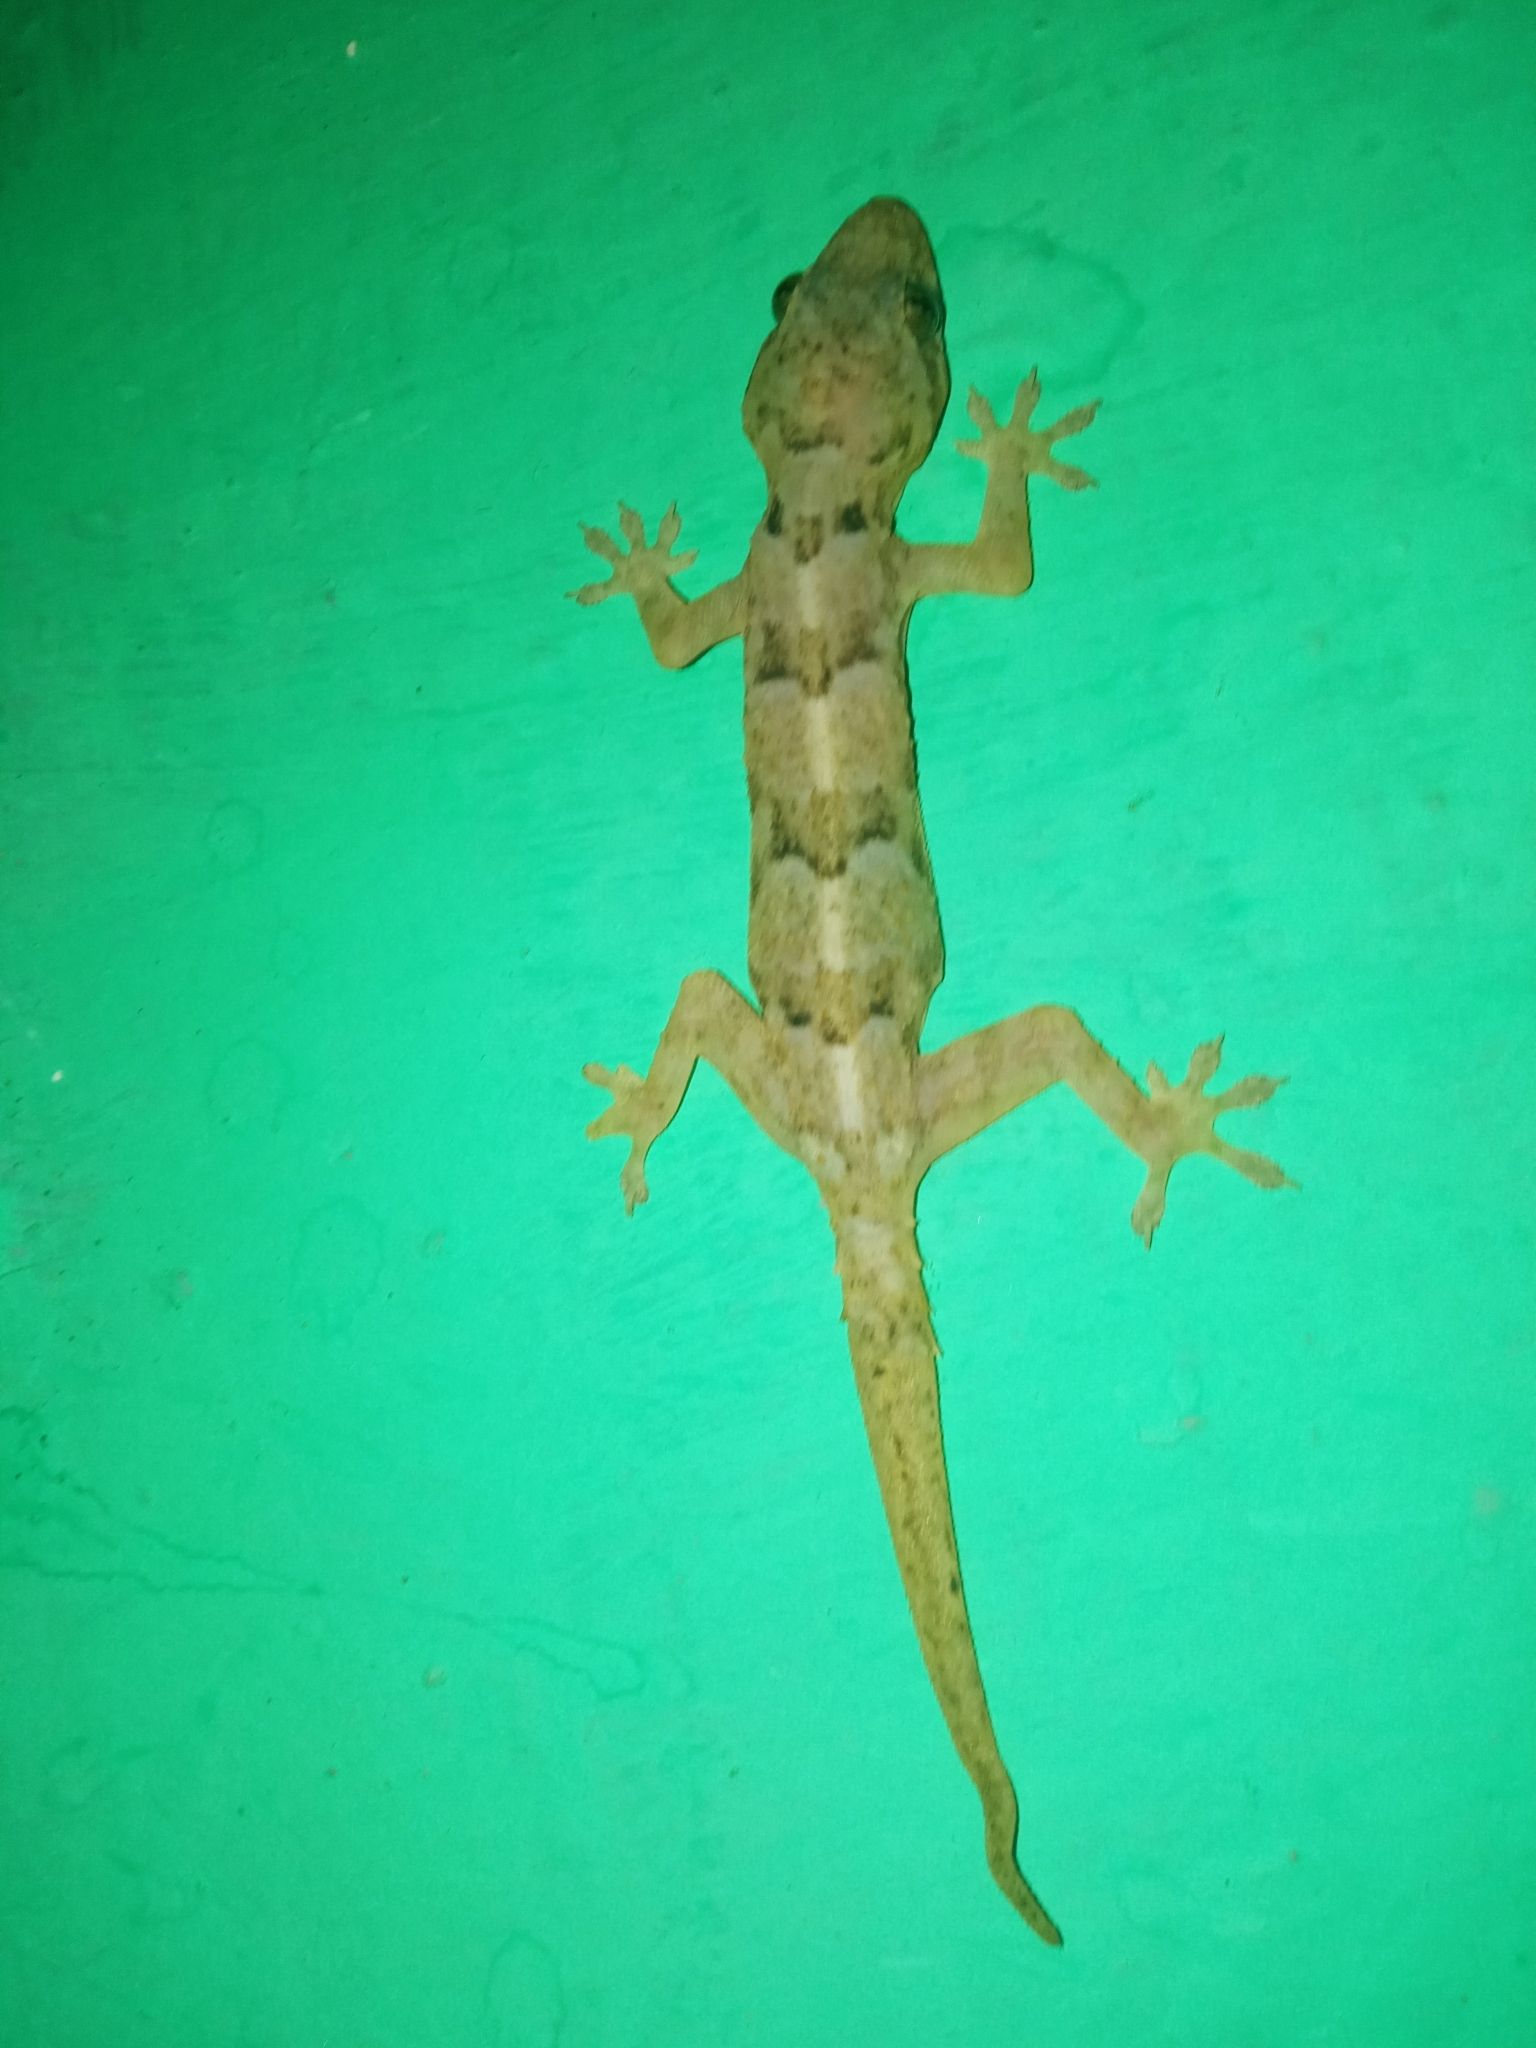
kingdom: Animalia
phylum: Chordata
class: Squamata
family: Gekkonidae
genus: Hemidactylus
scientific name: Hemidactylus mabouia
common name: House gecko
